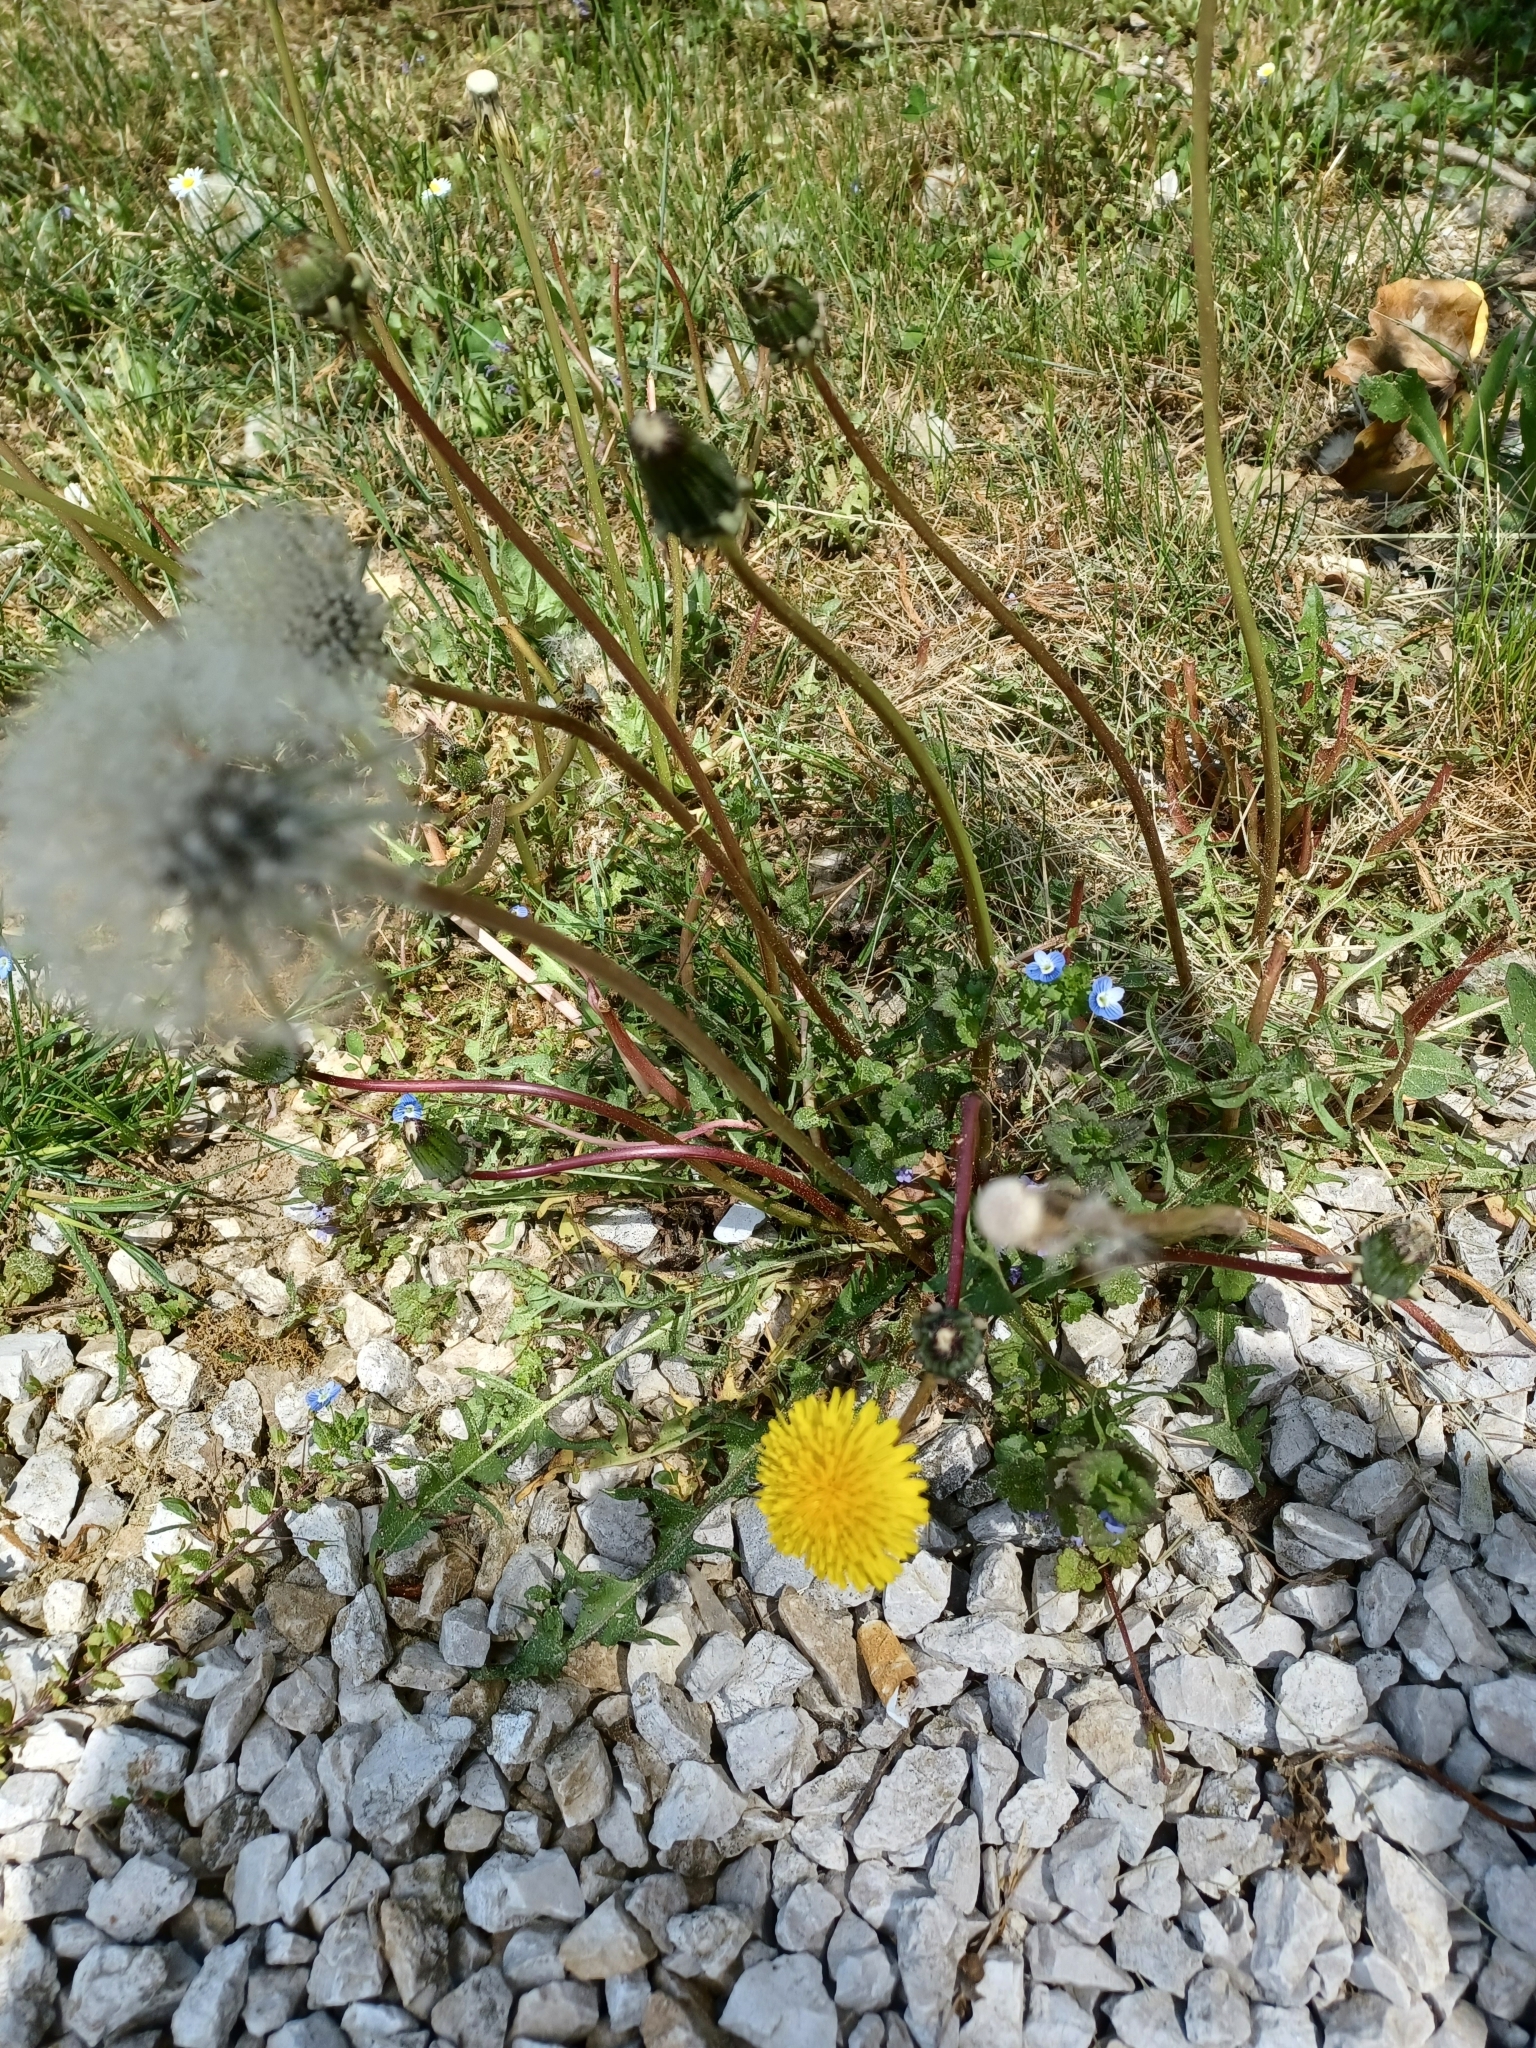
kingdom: Plantae
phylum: Tracheophyta
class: Magnoliopsida
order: Asterales
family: Asteraceae
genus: Taraxacum
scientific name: Taraxacum officinale
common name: Common dandelion
